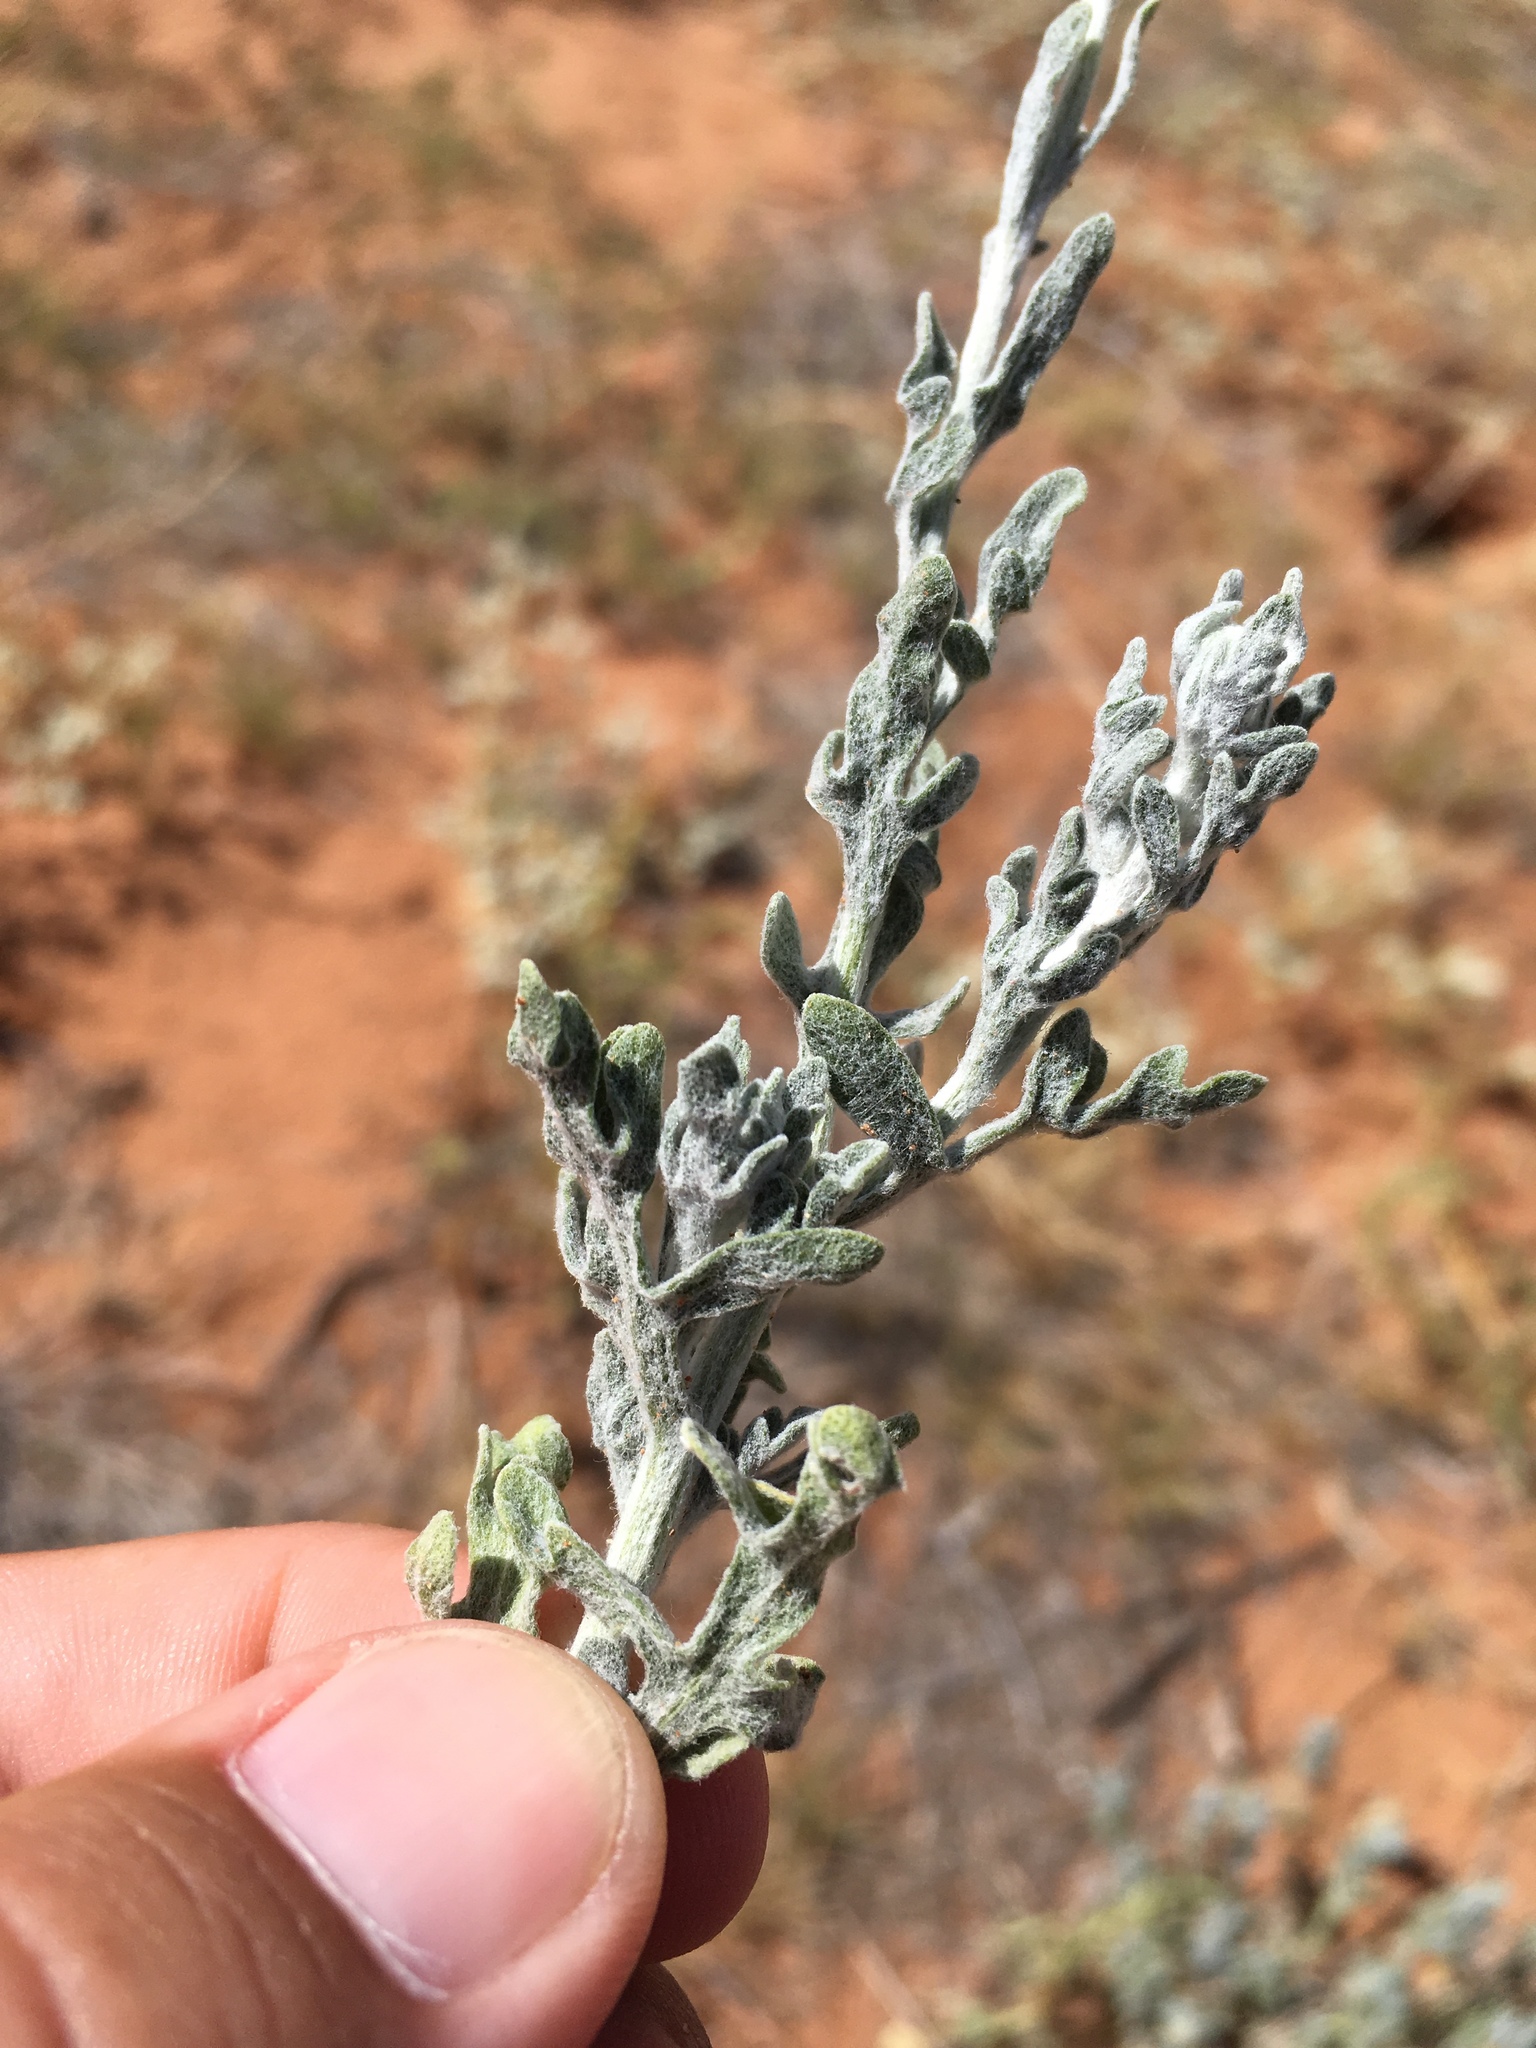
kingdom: Plantae
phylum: Tracheophyta
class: Magnoliopsida
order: Asterales
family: Asteraceae
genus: Baileya
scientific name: Baileya multiradiata
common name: Desert-marigold
